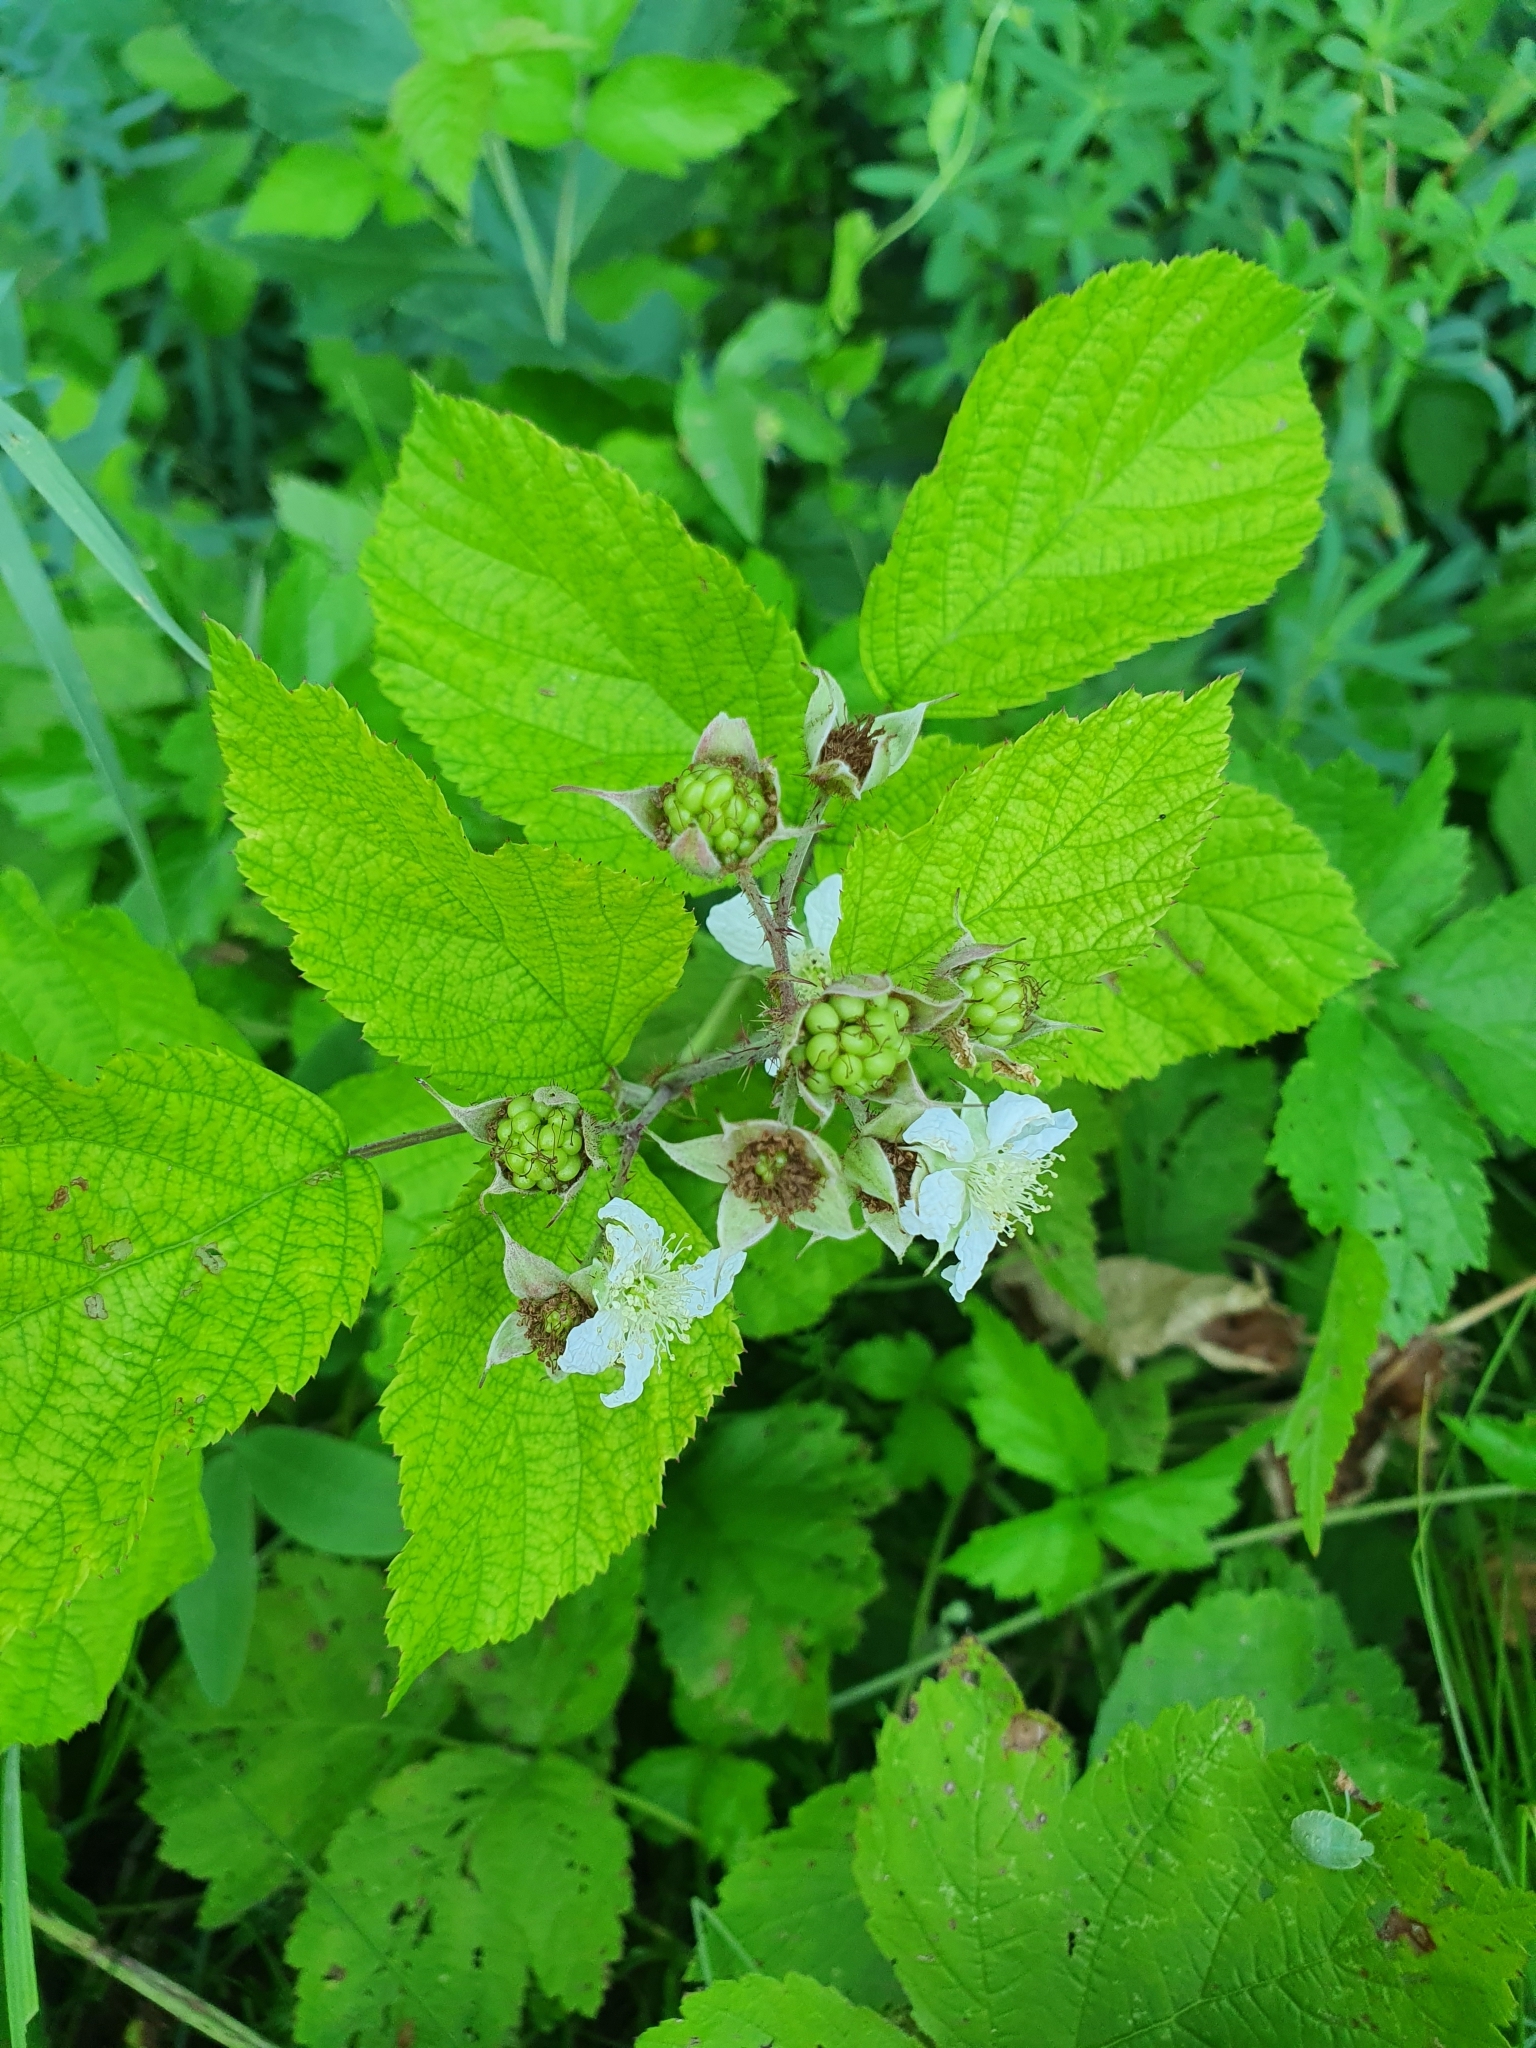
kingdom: Plantae
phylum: Tracheophyta
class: Magnoliopsida
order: Rosales
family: Rosaceae
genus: Rubus
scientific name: Rubus caesius
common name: Dewberry
